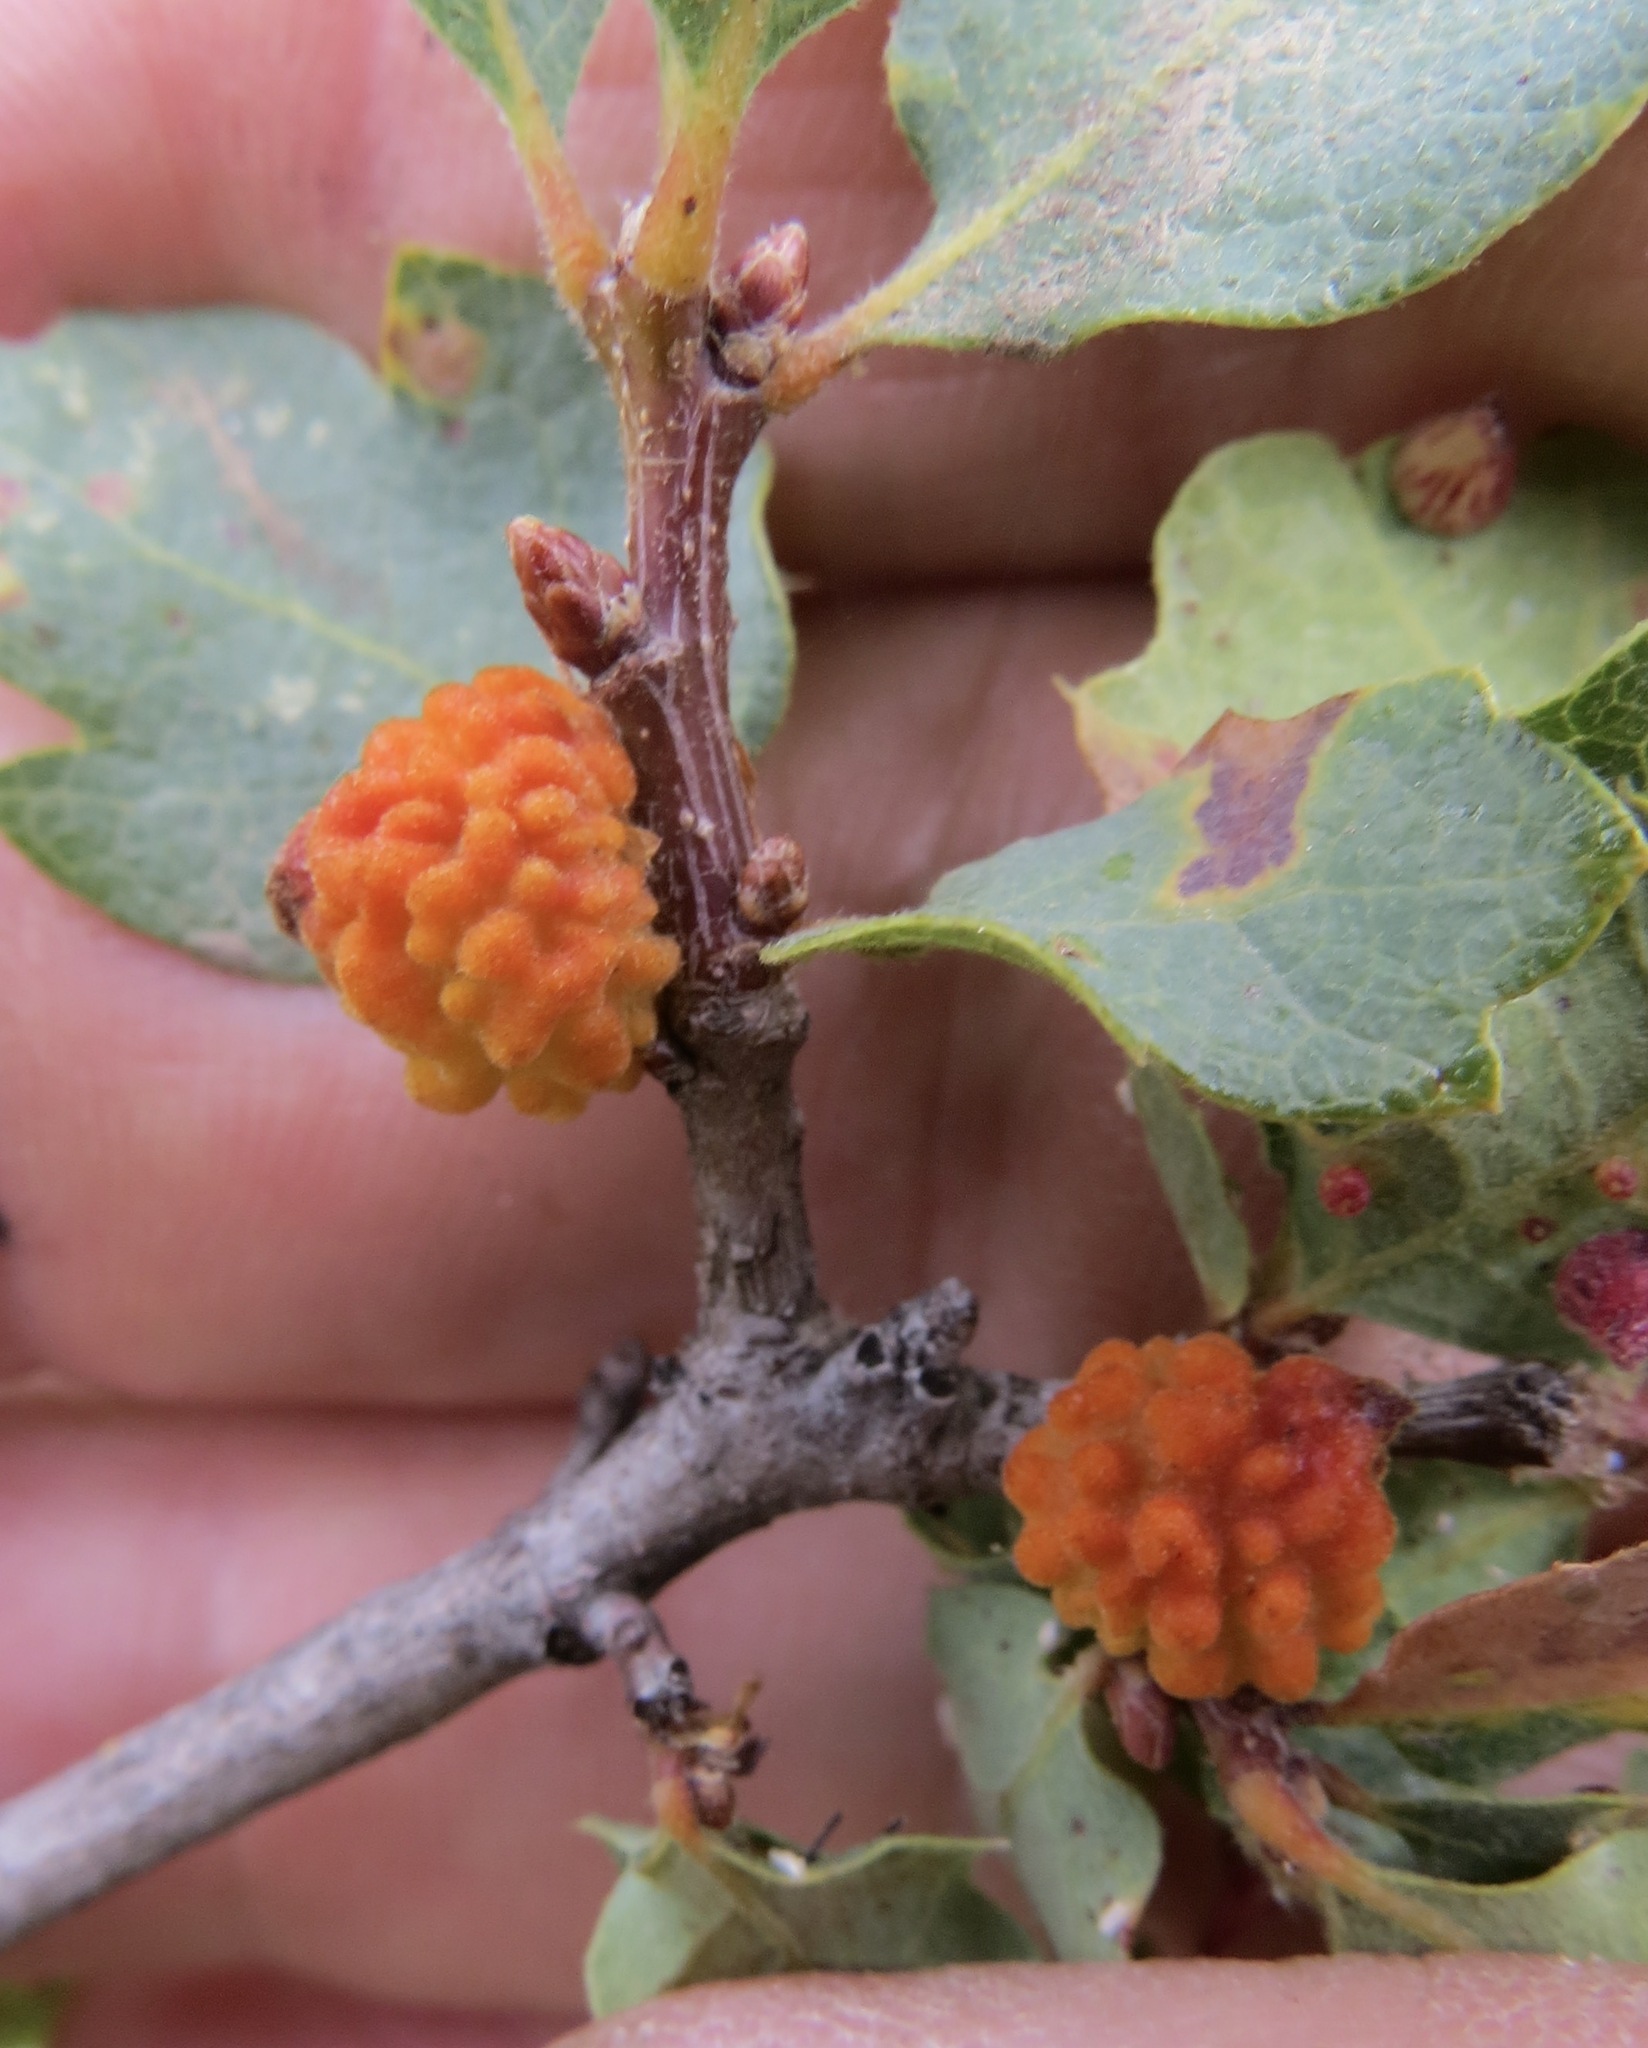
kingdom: Animalia
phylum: Arthropoda
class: Insecta
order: Hymenoptera
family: Cynipidae
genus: Burnettweldia
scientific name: Burnettweldia
